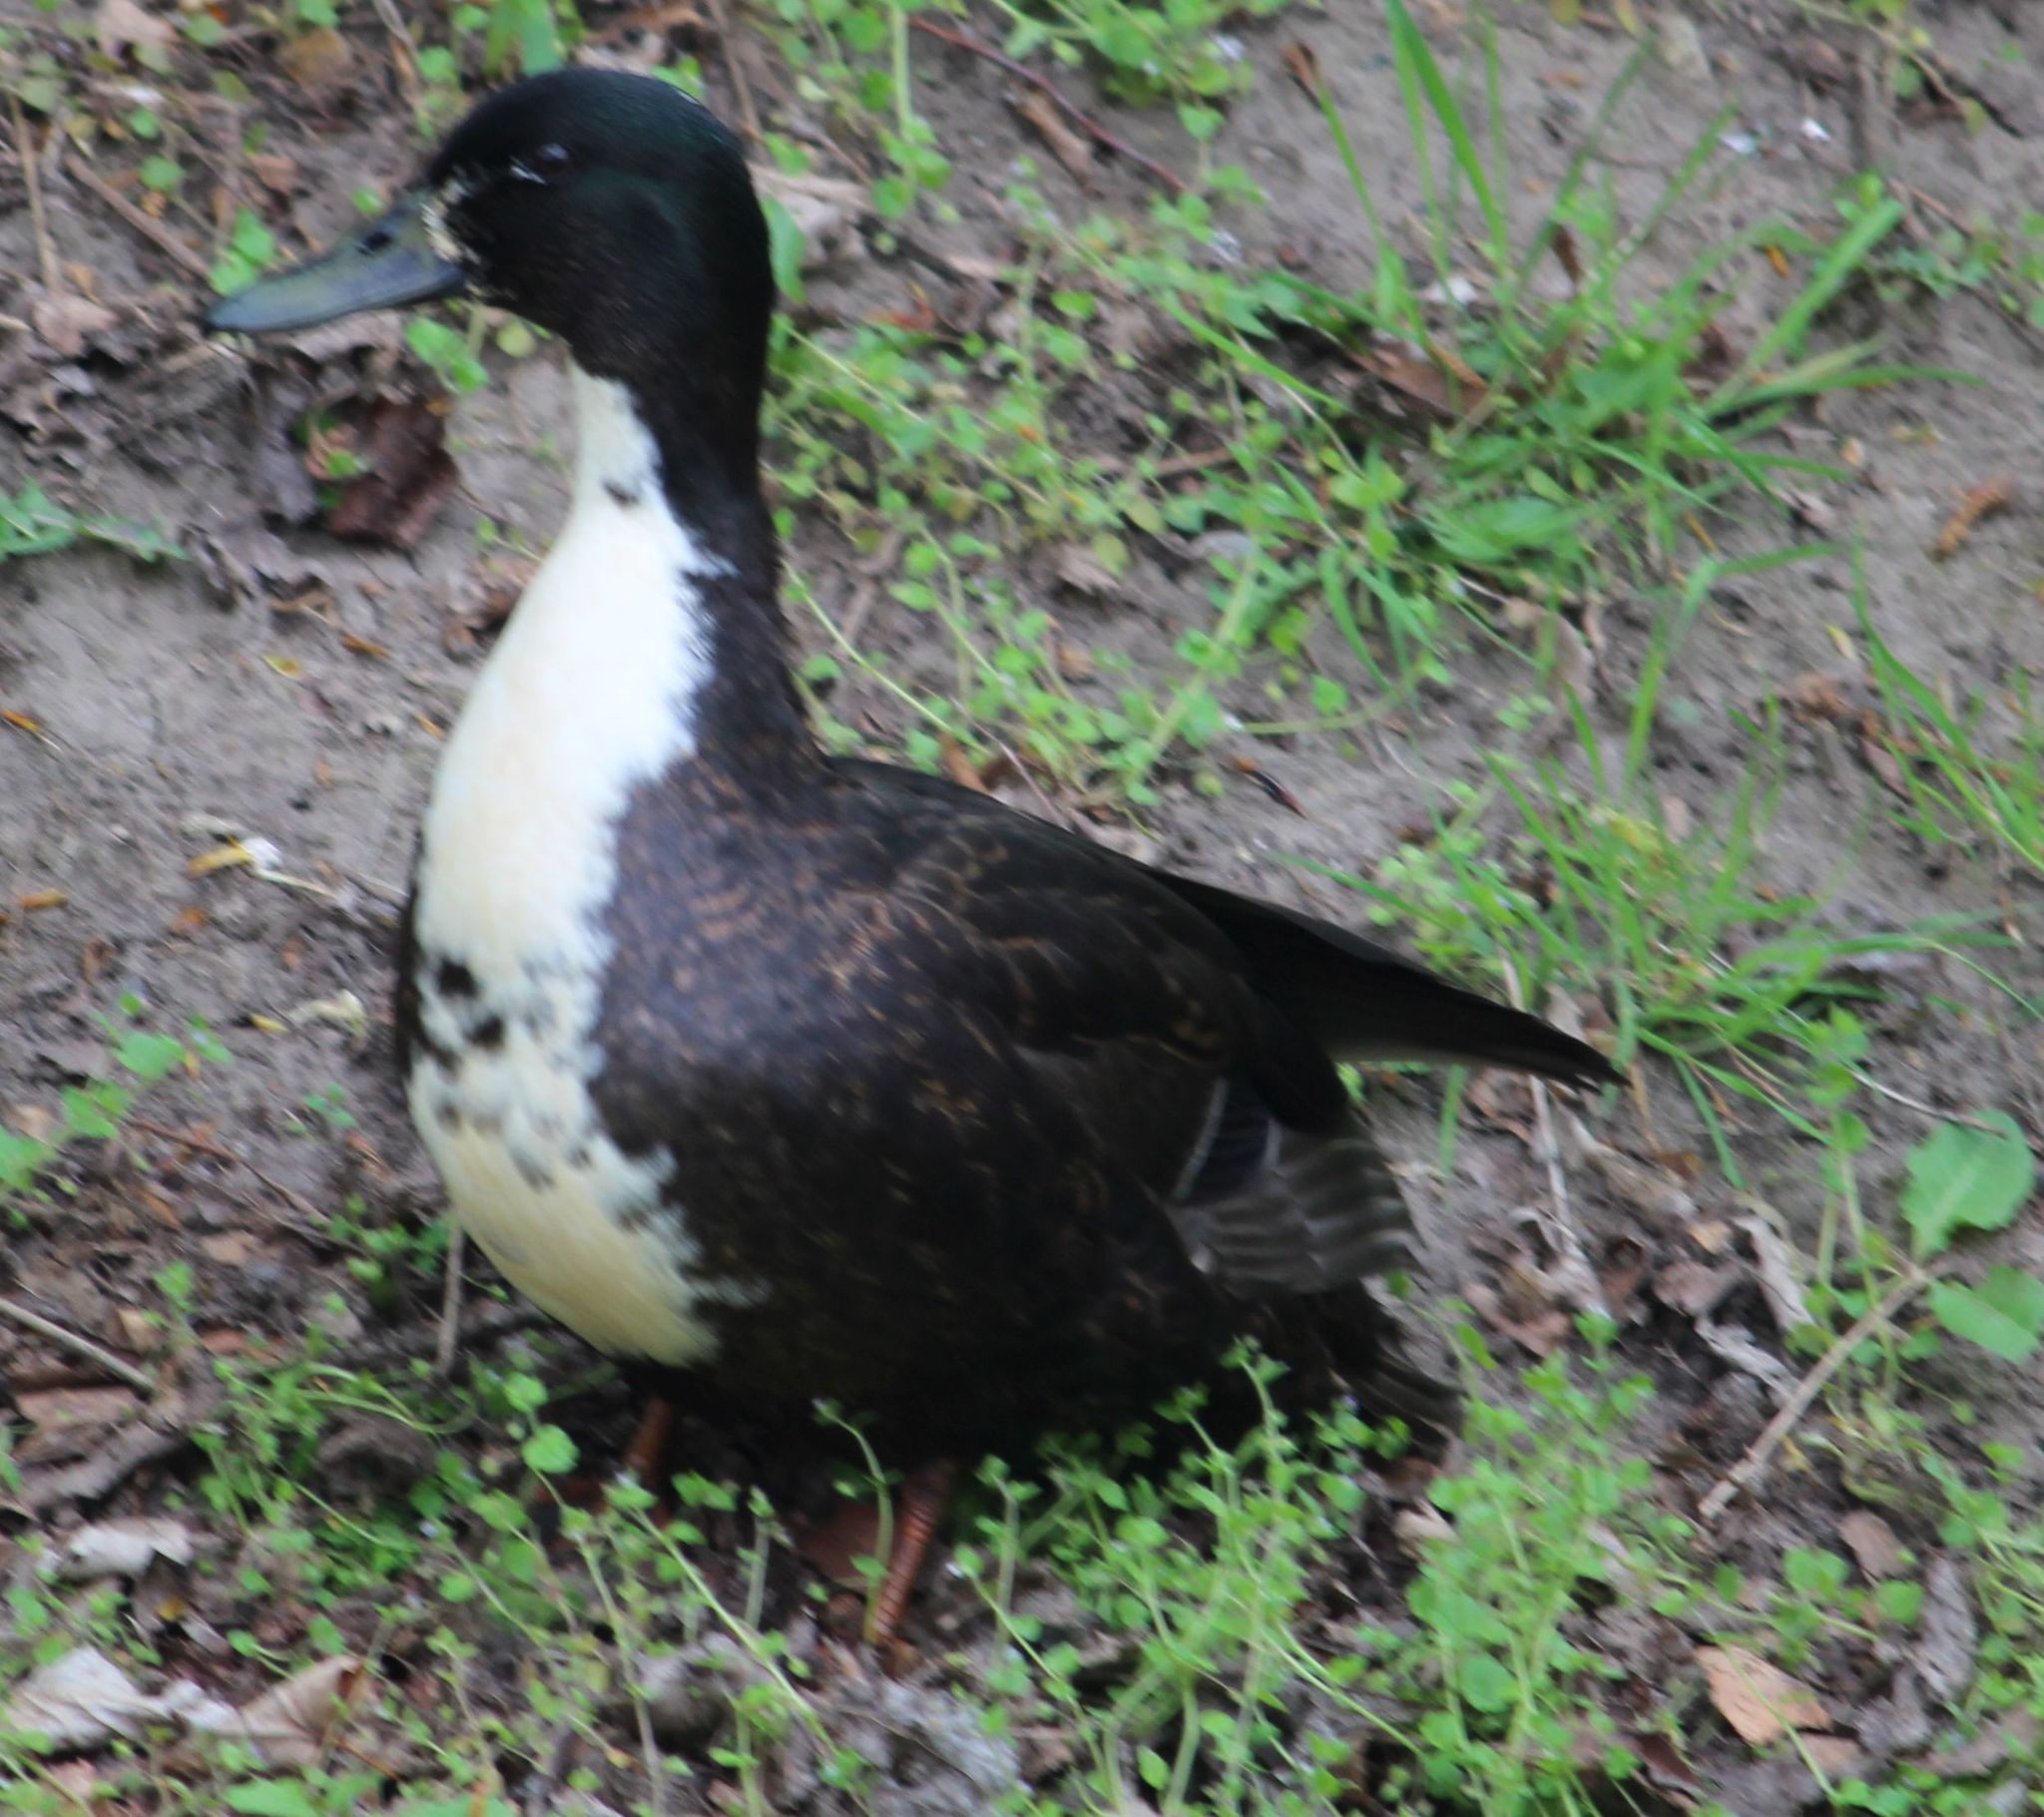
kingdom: Animalia
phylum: Chordata
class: Aves
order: Anseriformes
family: Anatidae
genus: Anas
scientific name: Anas platyrhynchos
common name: Mallard
